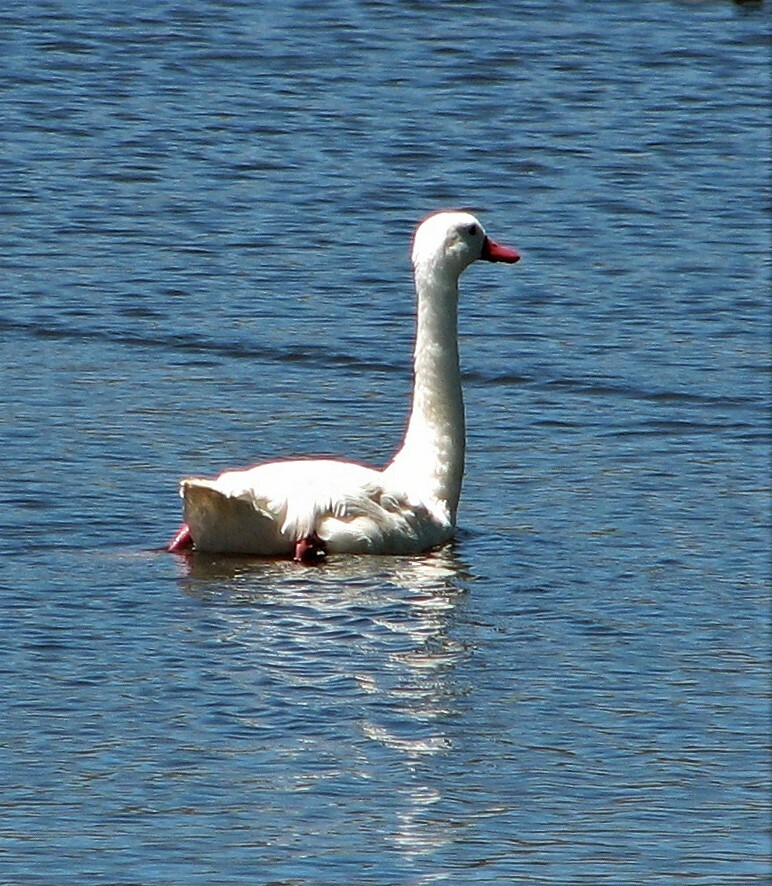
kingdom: Animalia
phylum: Chordata
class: Aves
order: Anseriformes
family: Anatidae
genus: Coscoroba
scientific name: Coscoroba coscoroba
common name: Coscoroba swan
